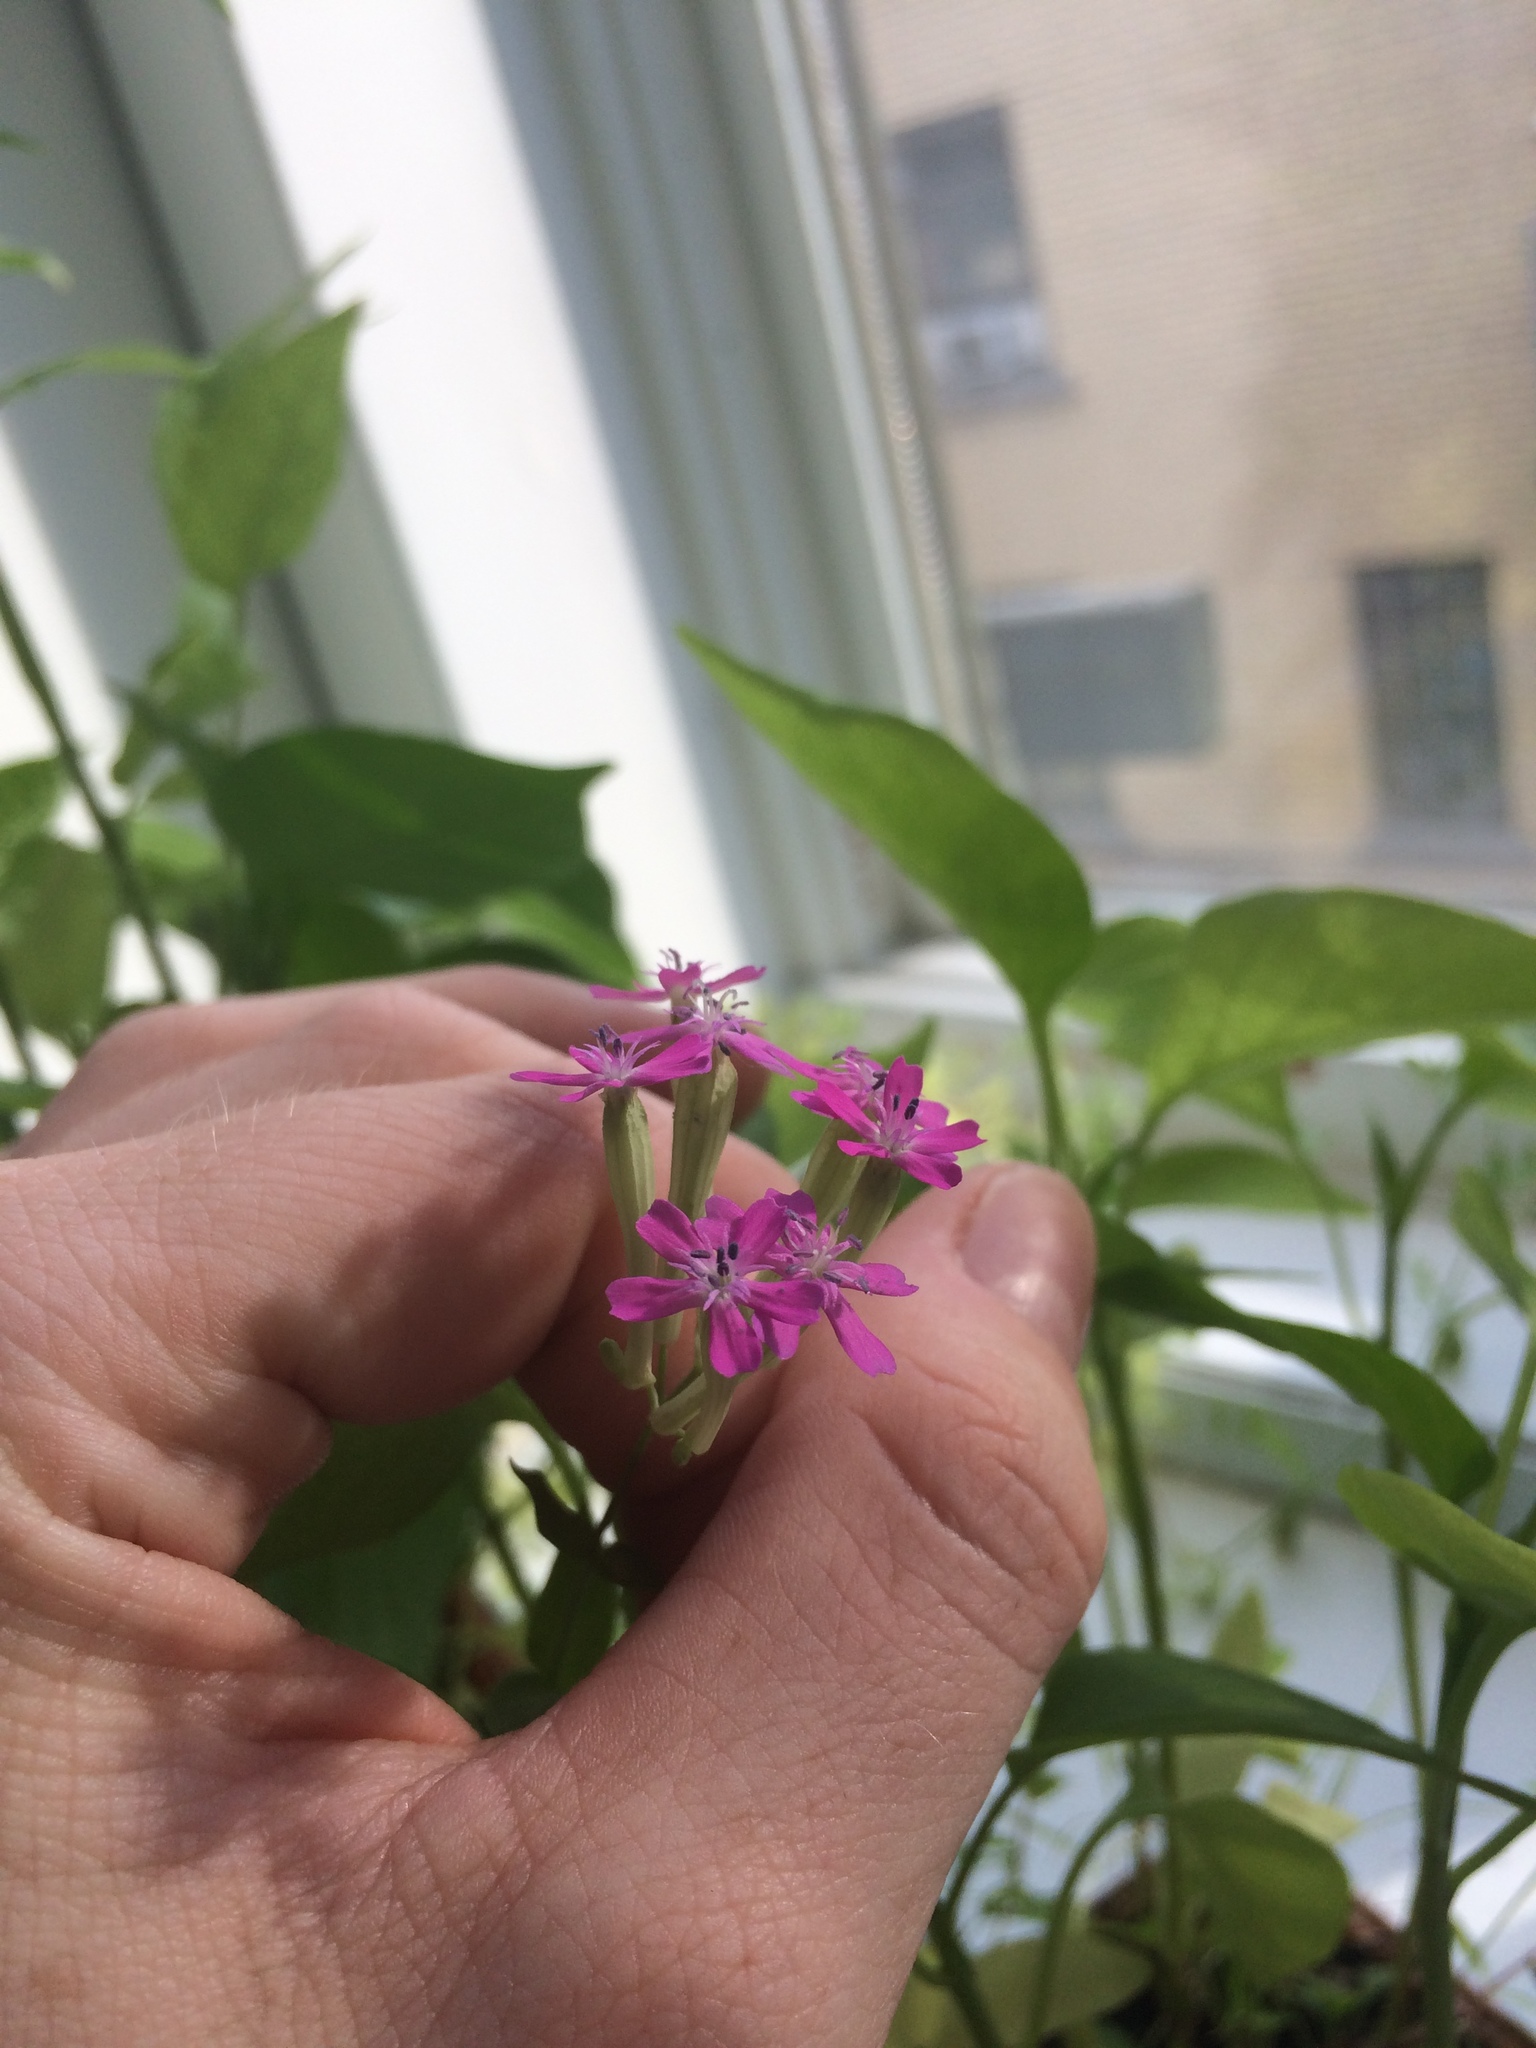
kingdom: Plantae
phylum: Tracheophyta
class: Magnoliopsida
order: Caryophyllales
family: Caryophyllaceae
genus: Atocion
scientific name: Atocion armeria
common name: Sweet william catchfly
